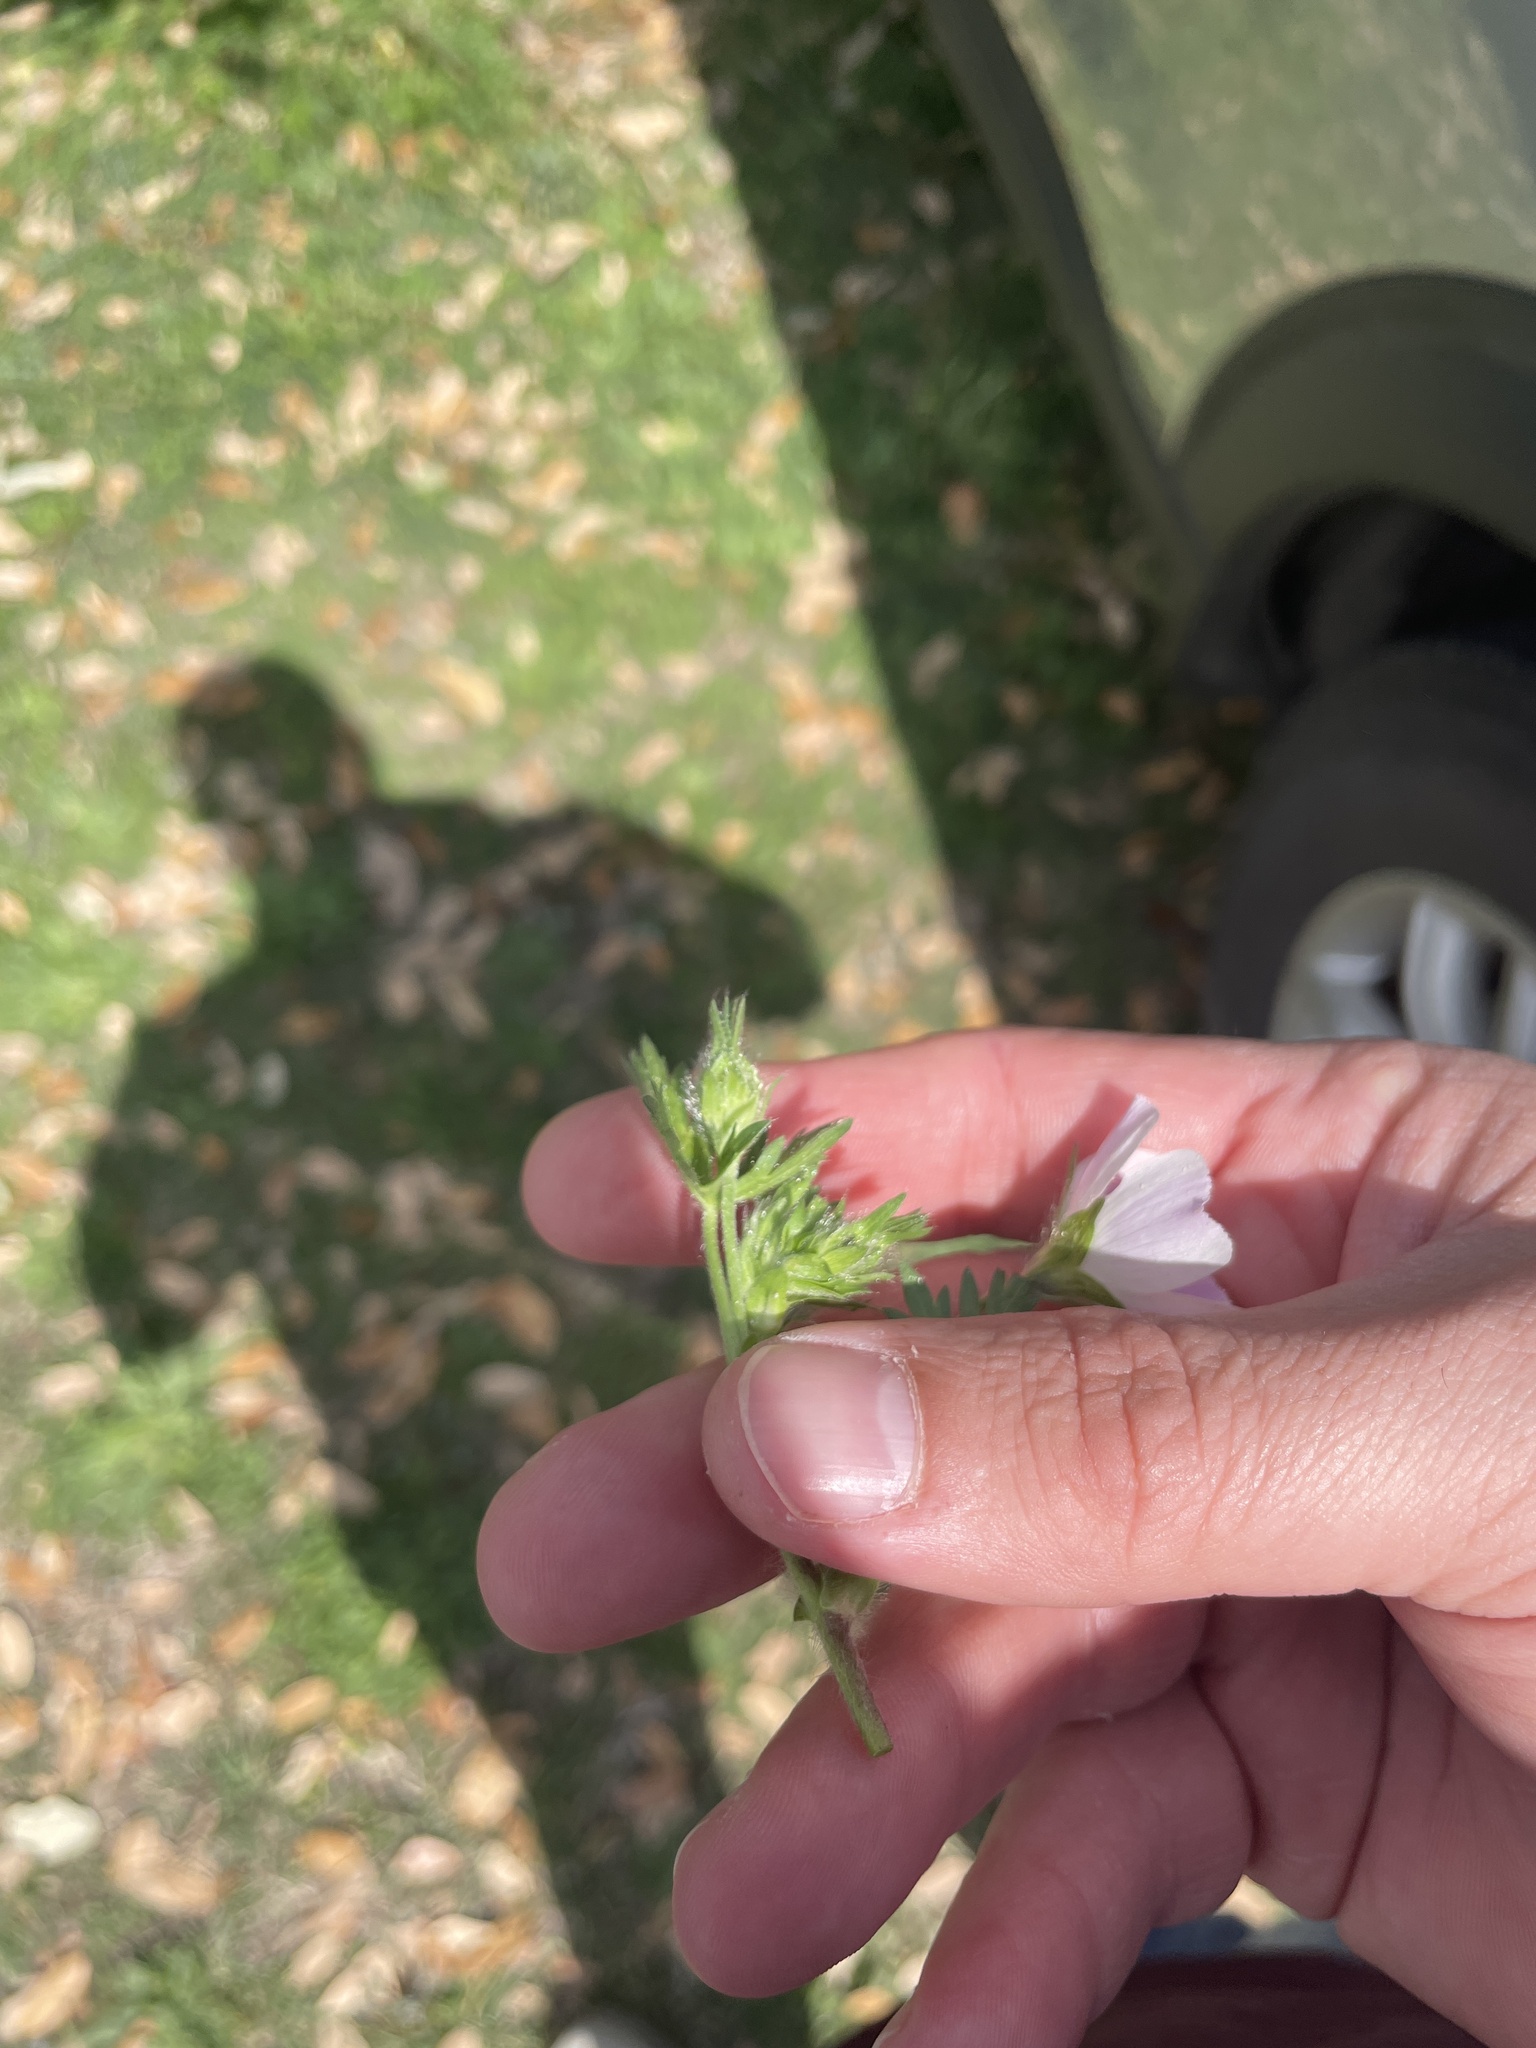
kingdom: Plantae
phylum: Tracheophyta
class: Magnoliopsida
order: Malvales
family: Malvaceae
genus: Callirhoe
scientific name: Callirhoe involucrata
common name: Purple poppy-mallow
